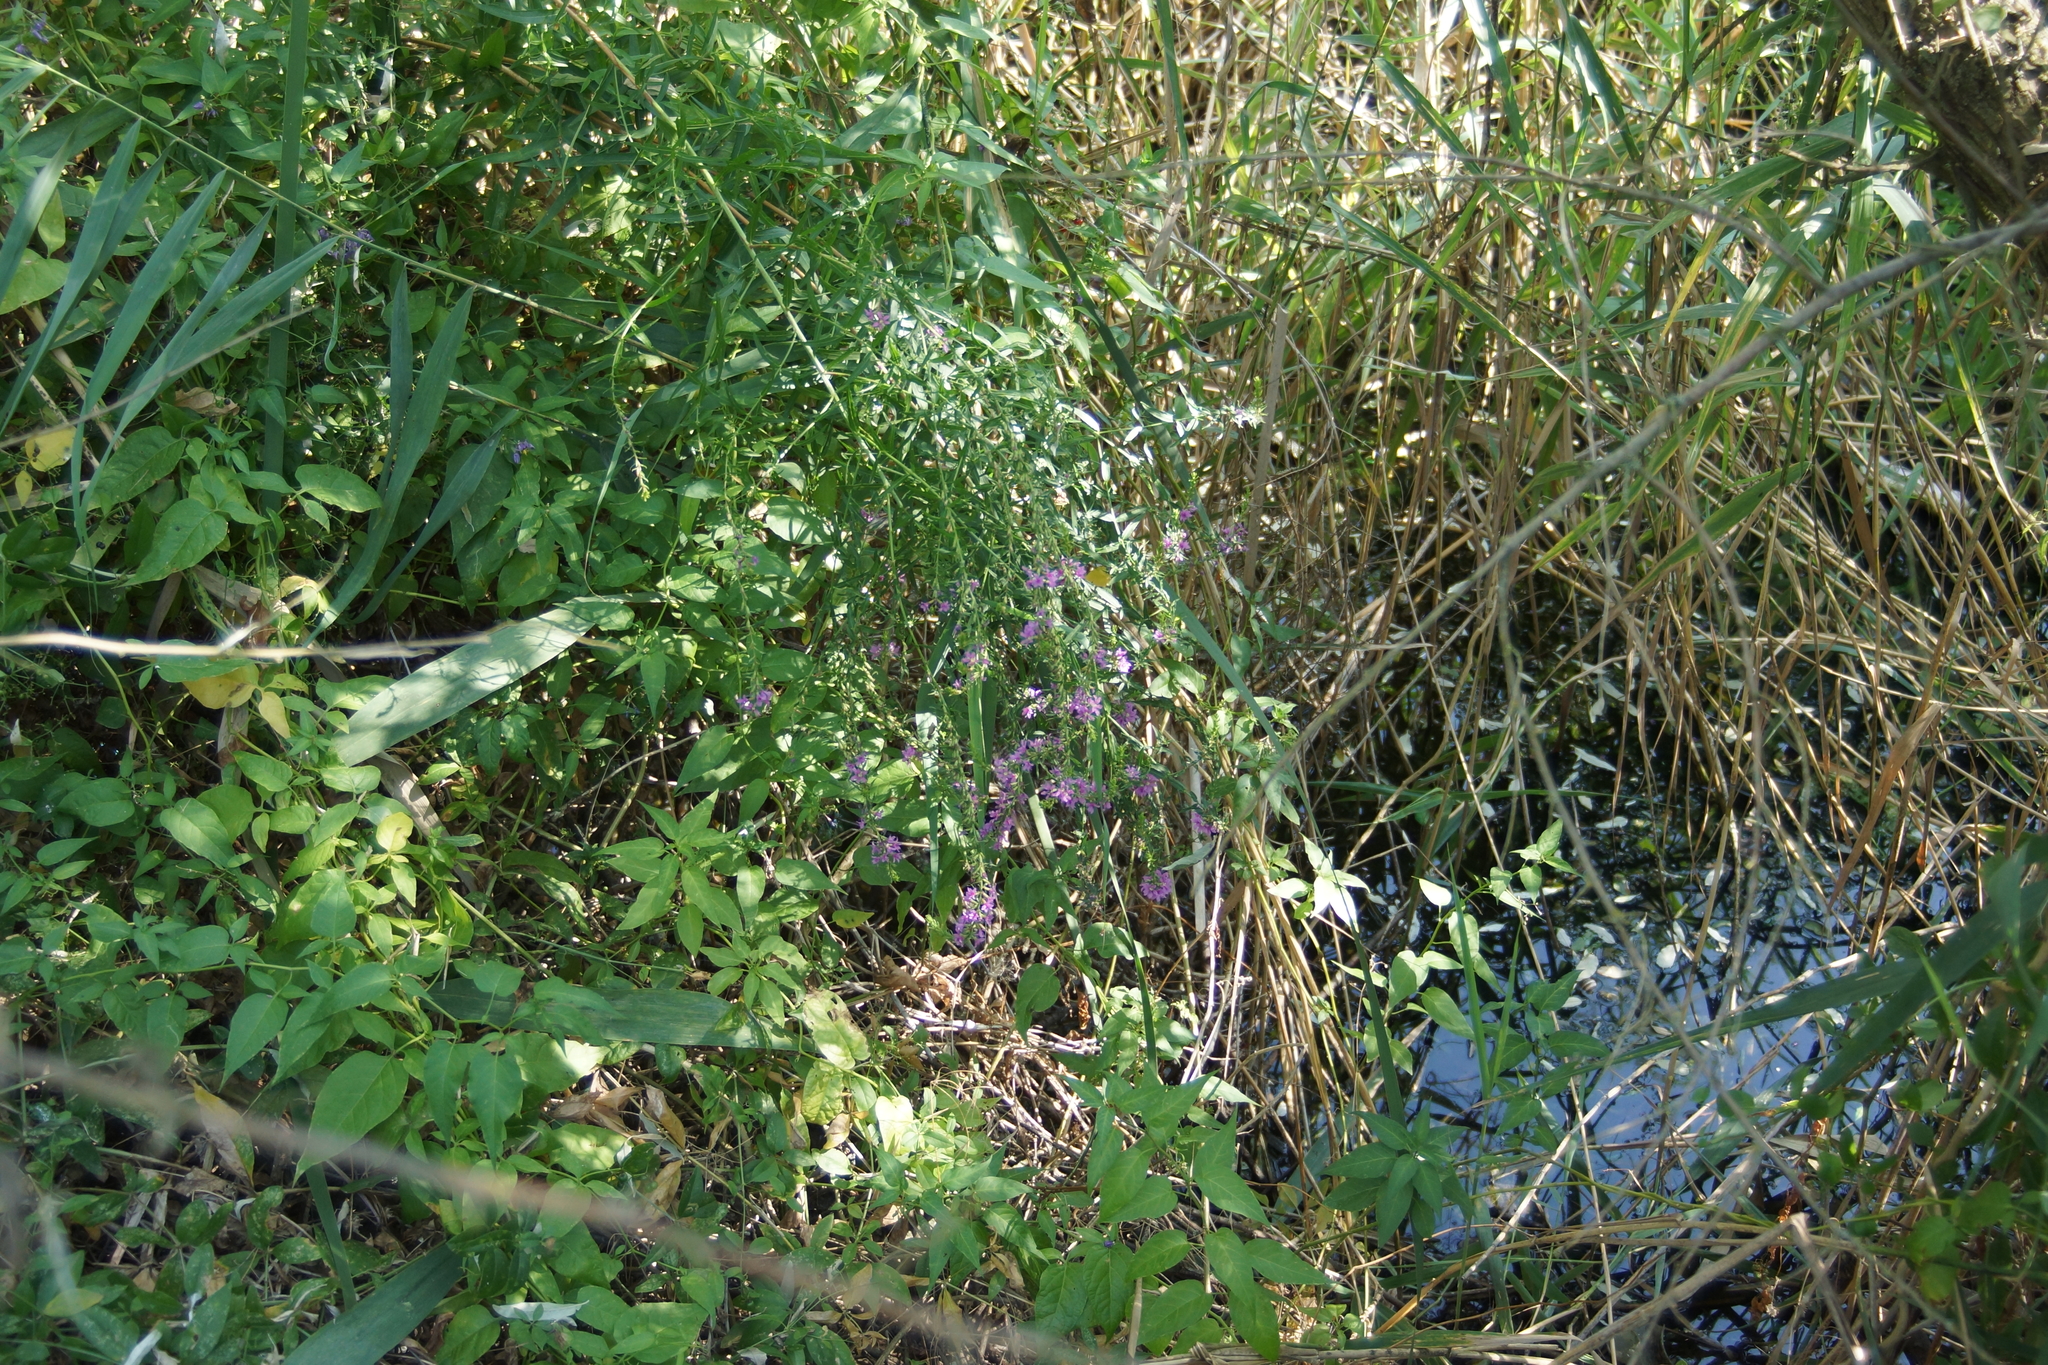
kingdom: Plantae
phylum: Tracheophyta
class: Magnoliopsida
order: Myrtales
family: Lythraceae
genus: Lythrum
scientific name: Lythrum salicaria
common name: Purple loosestrife
